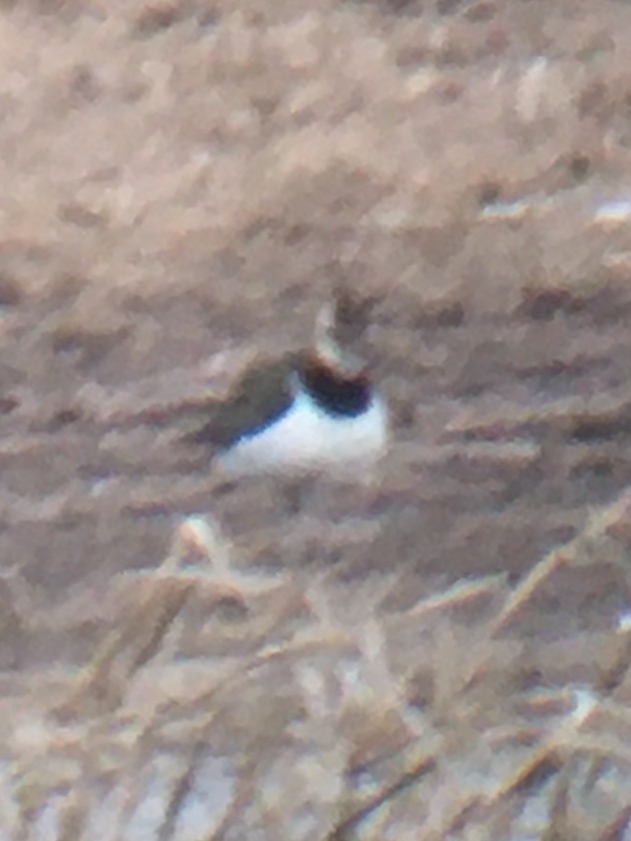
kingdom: Animalia
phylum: Chordata
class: Aves
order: Charadriiformes
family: Charadriidae
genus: Vanellus
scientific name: Vanellus vanellus
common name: Northern lapwing
